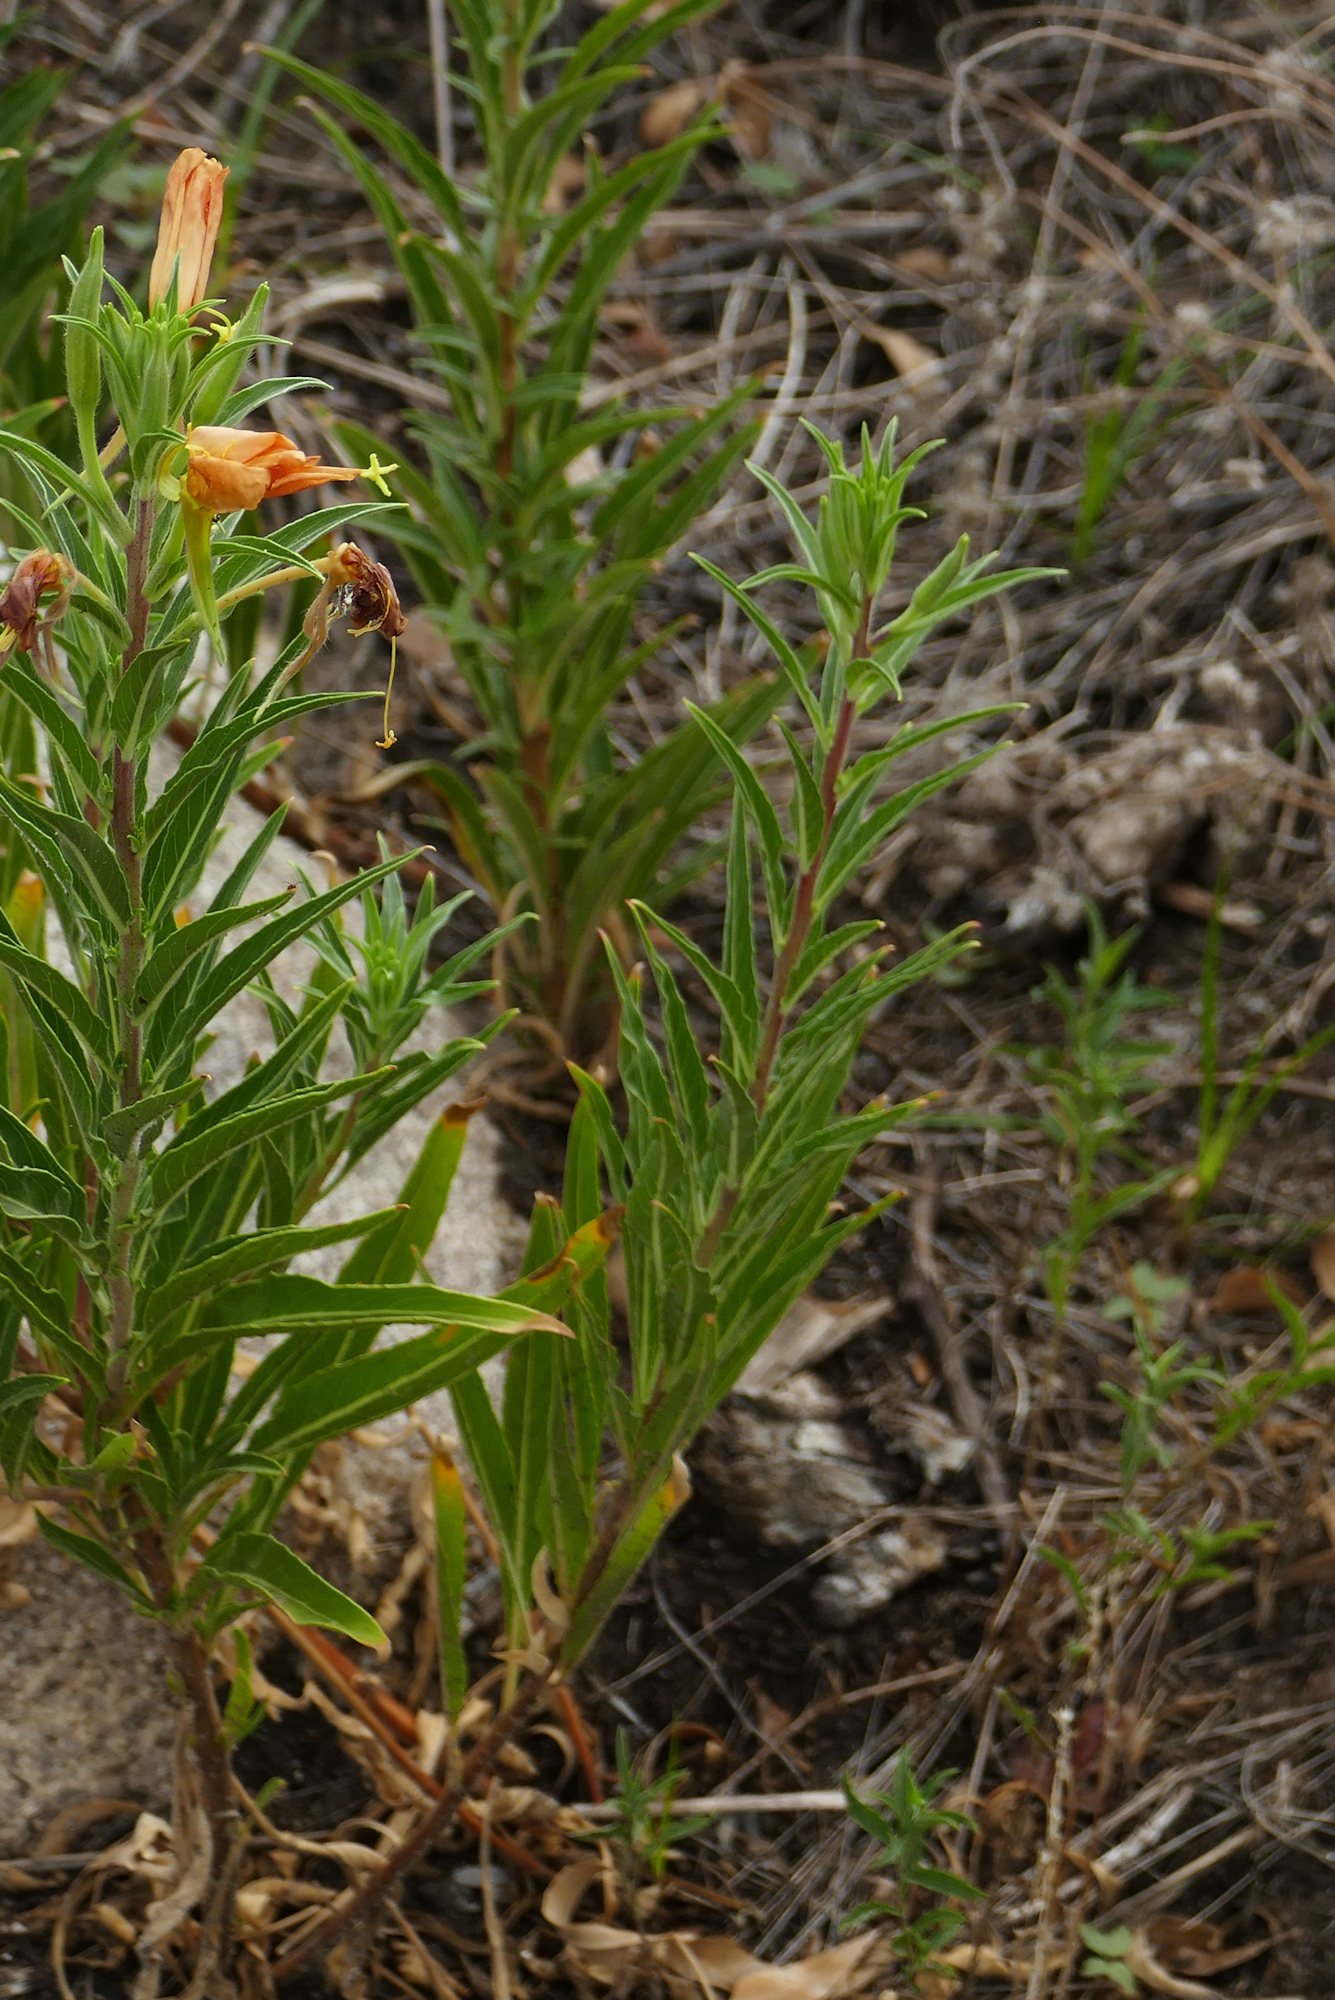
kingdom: Plantae
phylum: Tracheophyta
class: Magnoliopsida
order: Myrtales
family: Onagraceae
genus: Oenothera
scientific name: Oenothera elata
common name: Hooker's evening-primrose
